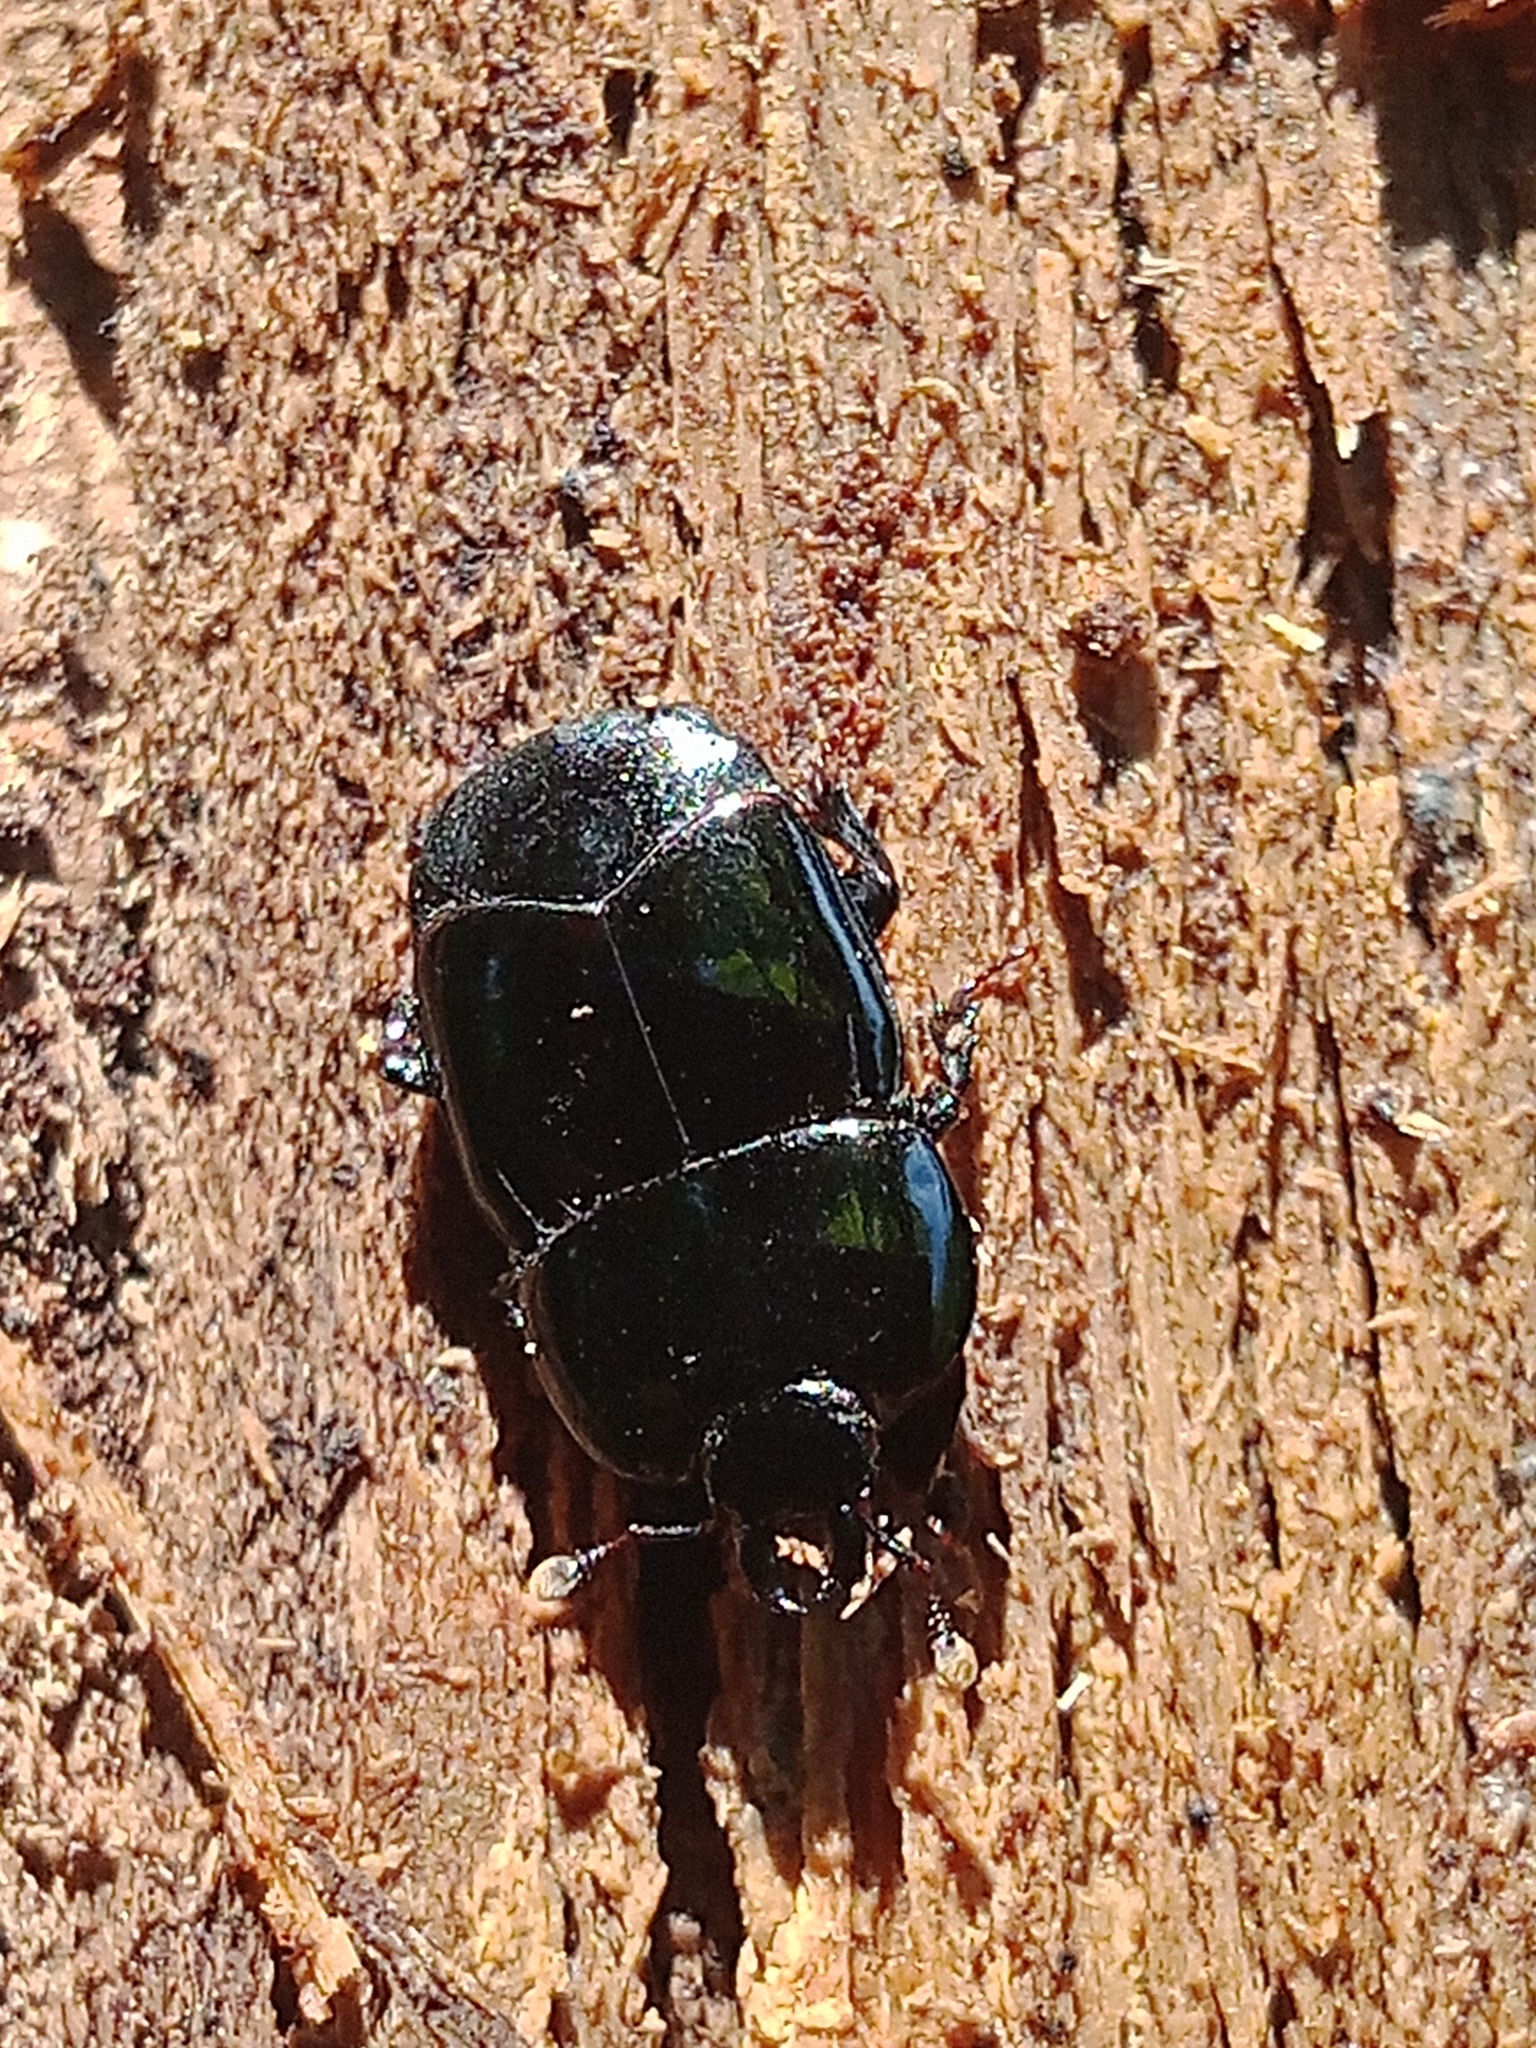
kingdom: Animalia
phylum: Arthropoda
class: Insecta
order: Coleoptera
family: Histeridae
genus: Hololepta
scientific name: Hololepta plana
